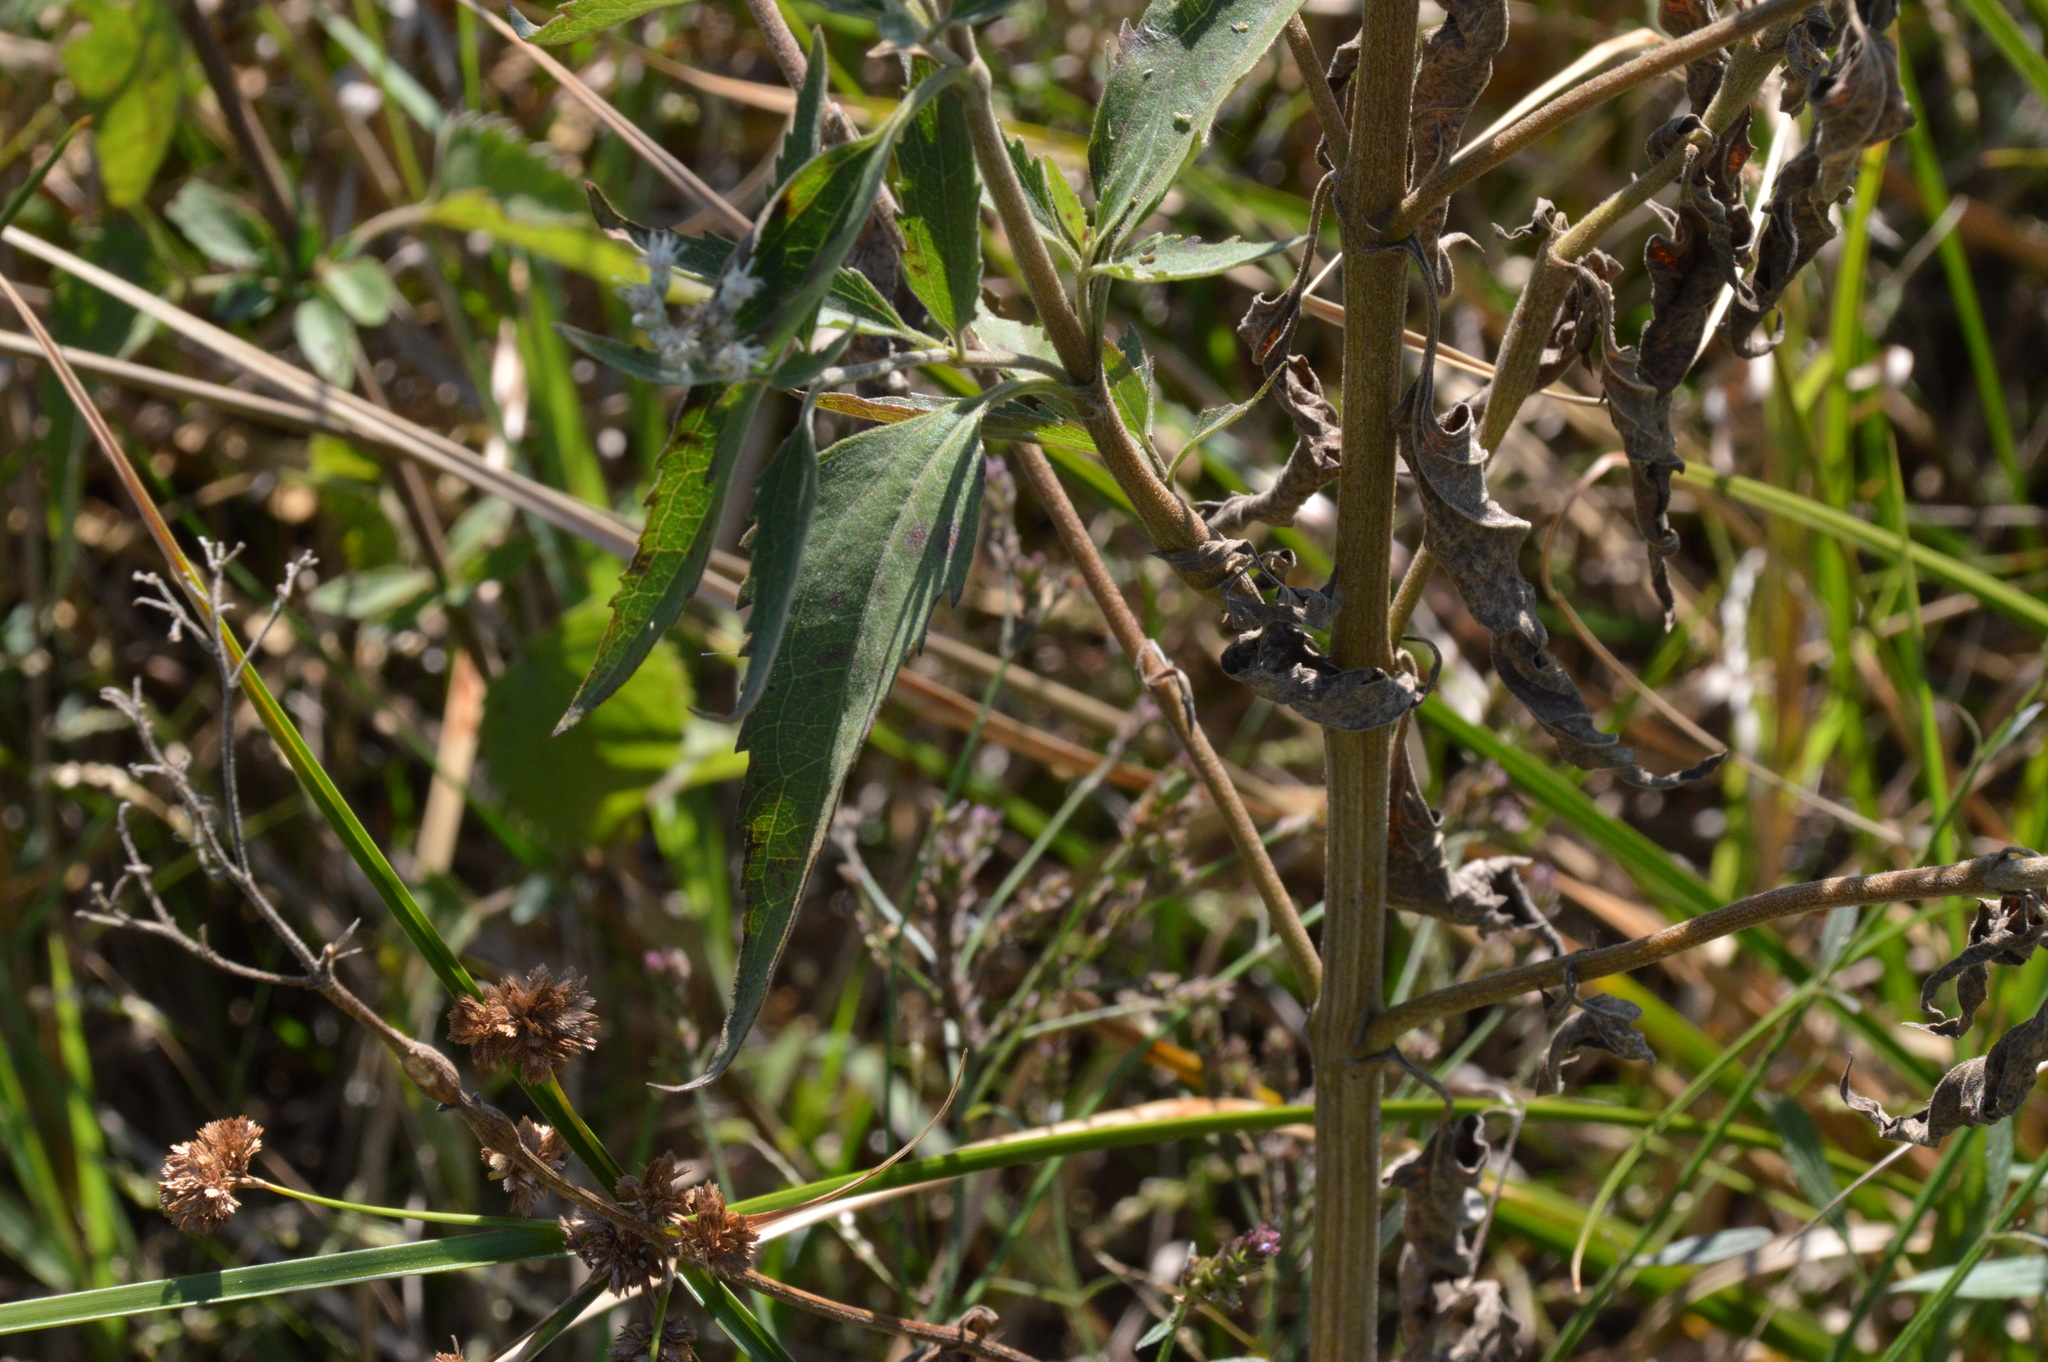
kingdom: Plantae
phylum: Tracheophyta
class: Magnoliopsida
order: Asterales
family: Asteraceae
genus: Eupatorium
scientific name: Eupatorium serotinum
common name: Late boneset
